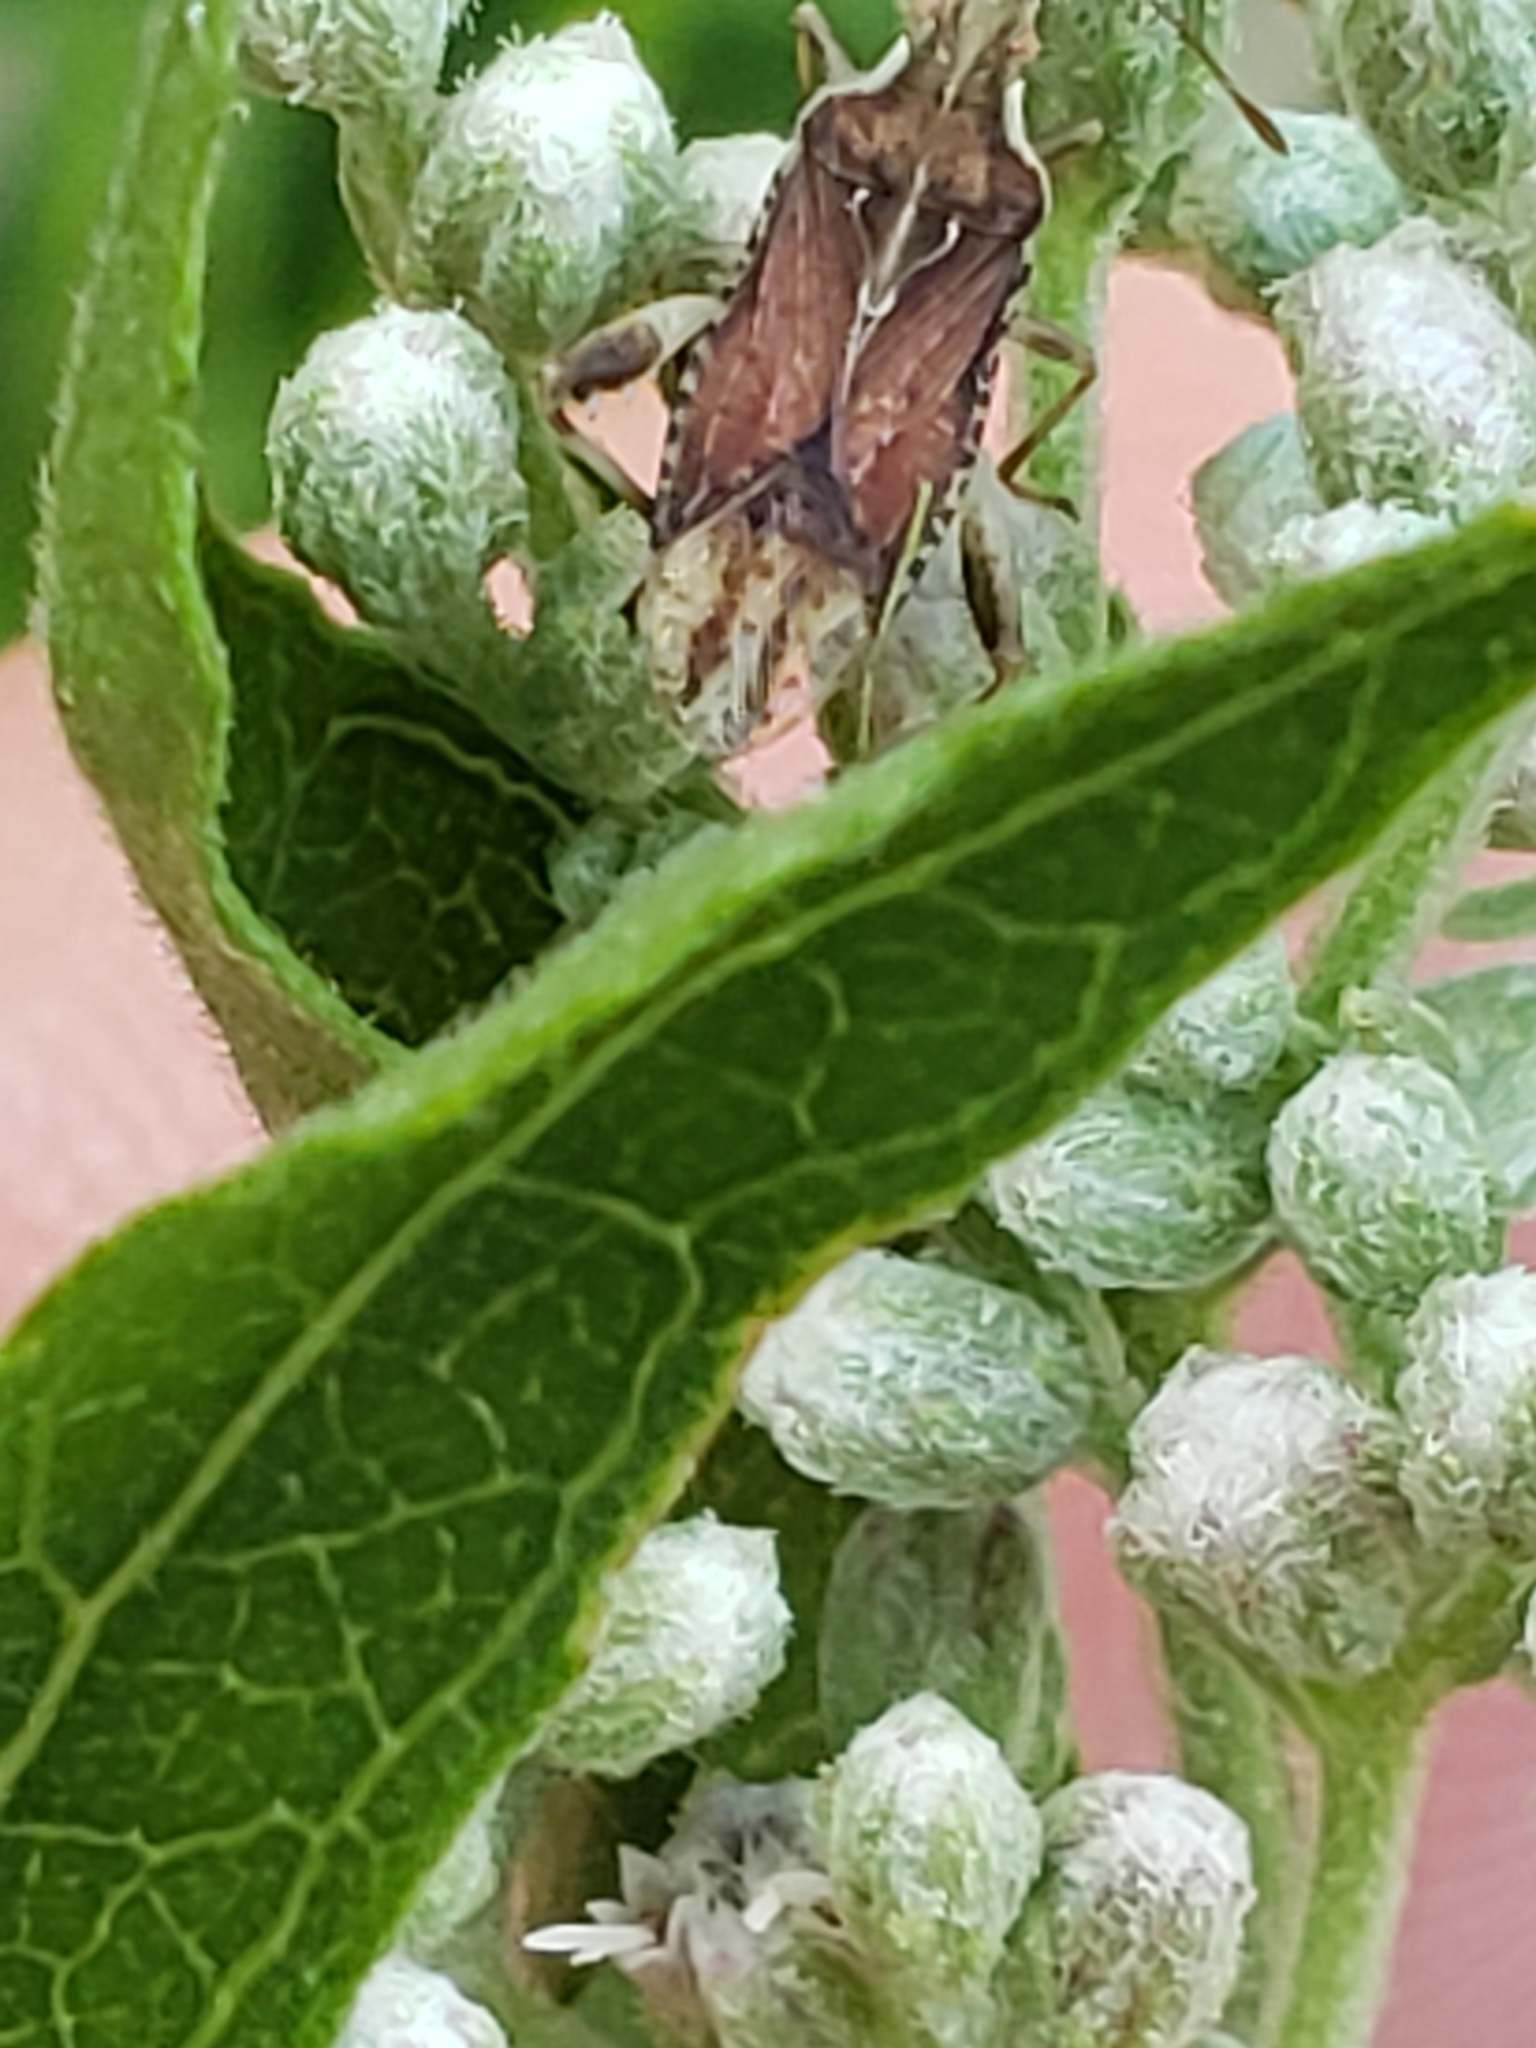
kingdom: Animalia
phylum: Arthropoda
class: Insecta
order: Hemiptera
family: Rhopalidae
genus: Harmostes
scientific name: Harmostes fraterculus
